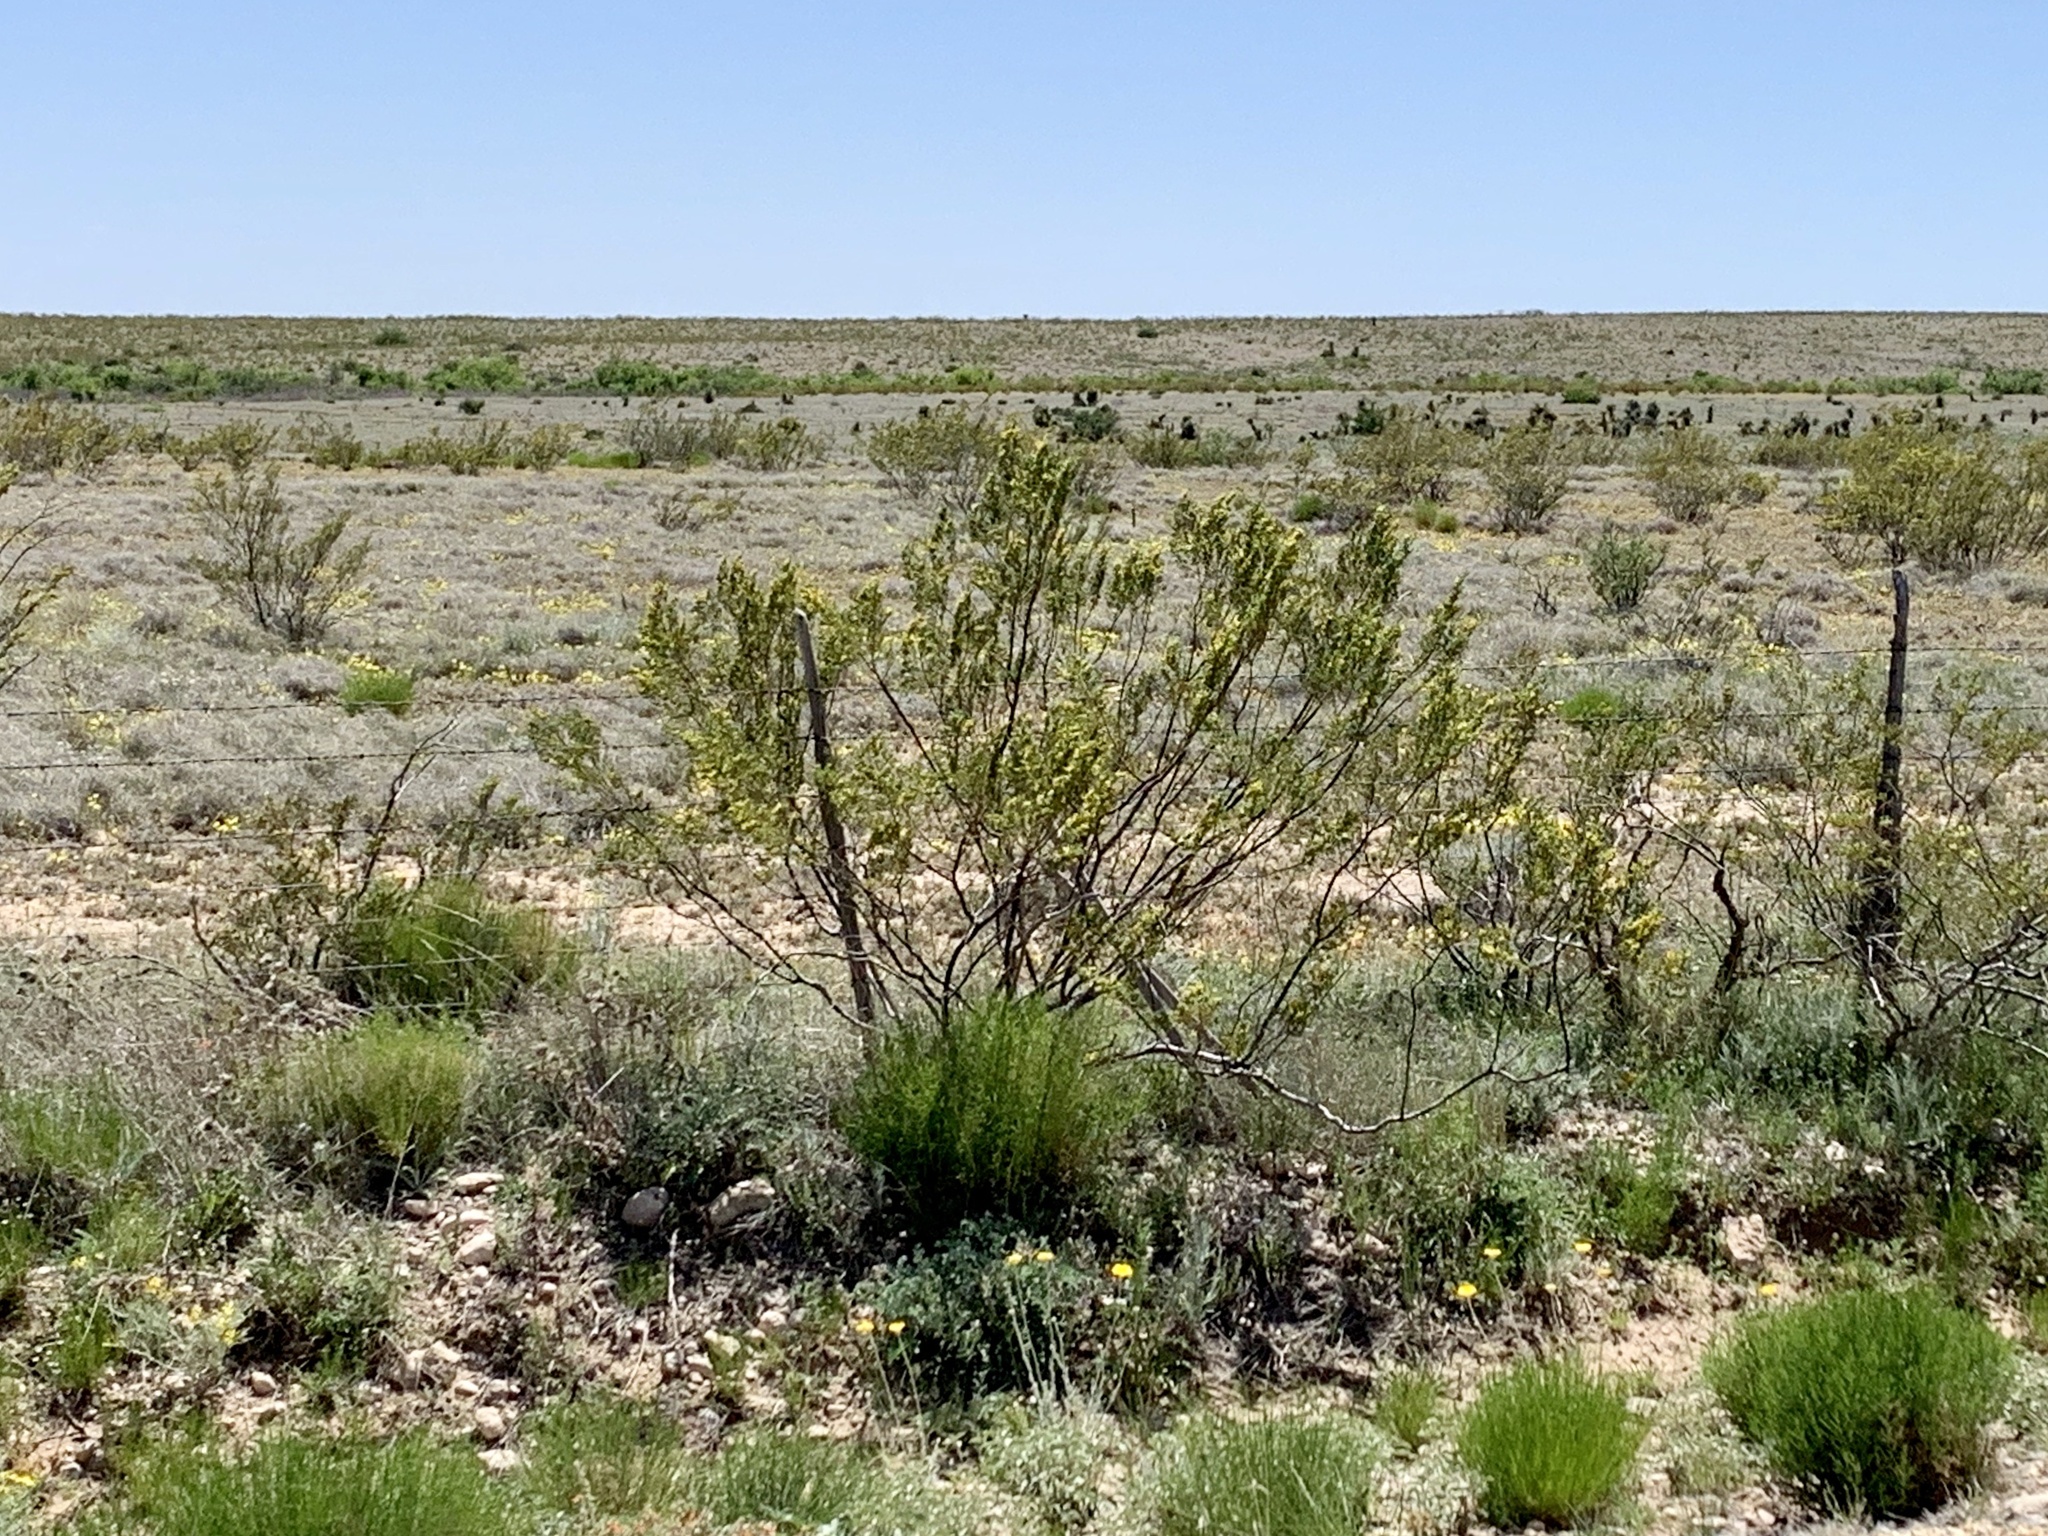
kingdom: Plantae
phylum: Tracheophyta
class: Magnoliopsida
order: Zygophyllales
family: Zygophyllaceae
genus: Larrea
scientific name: Larrea tridentata
